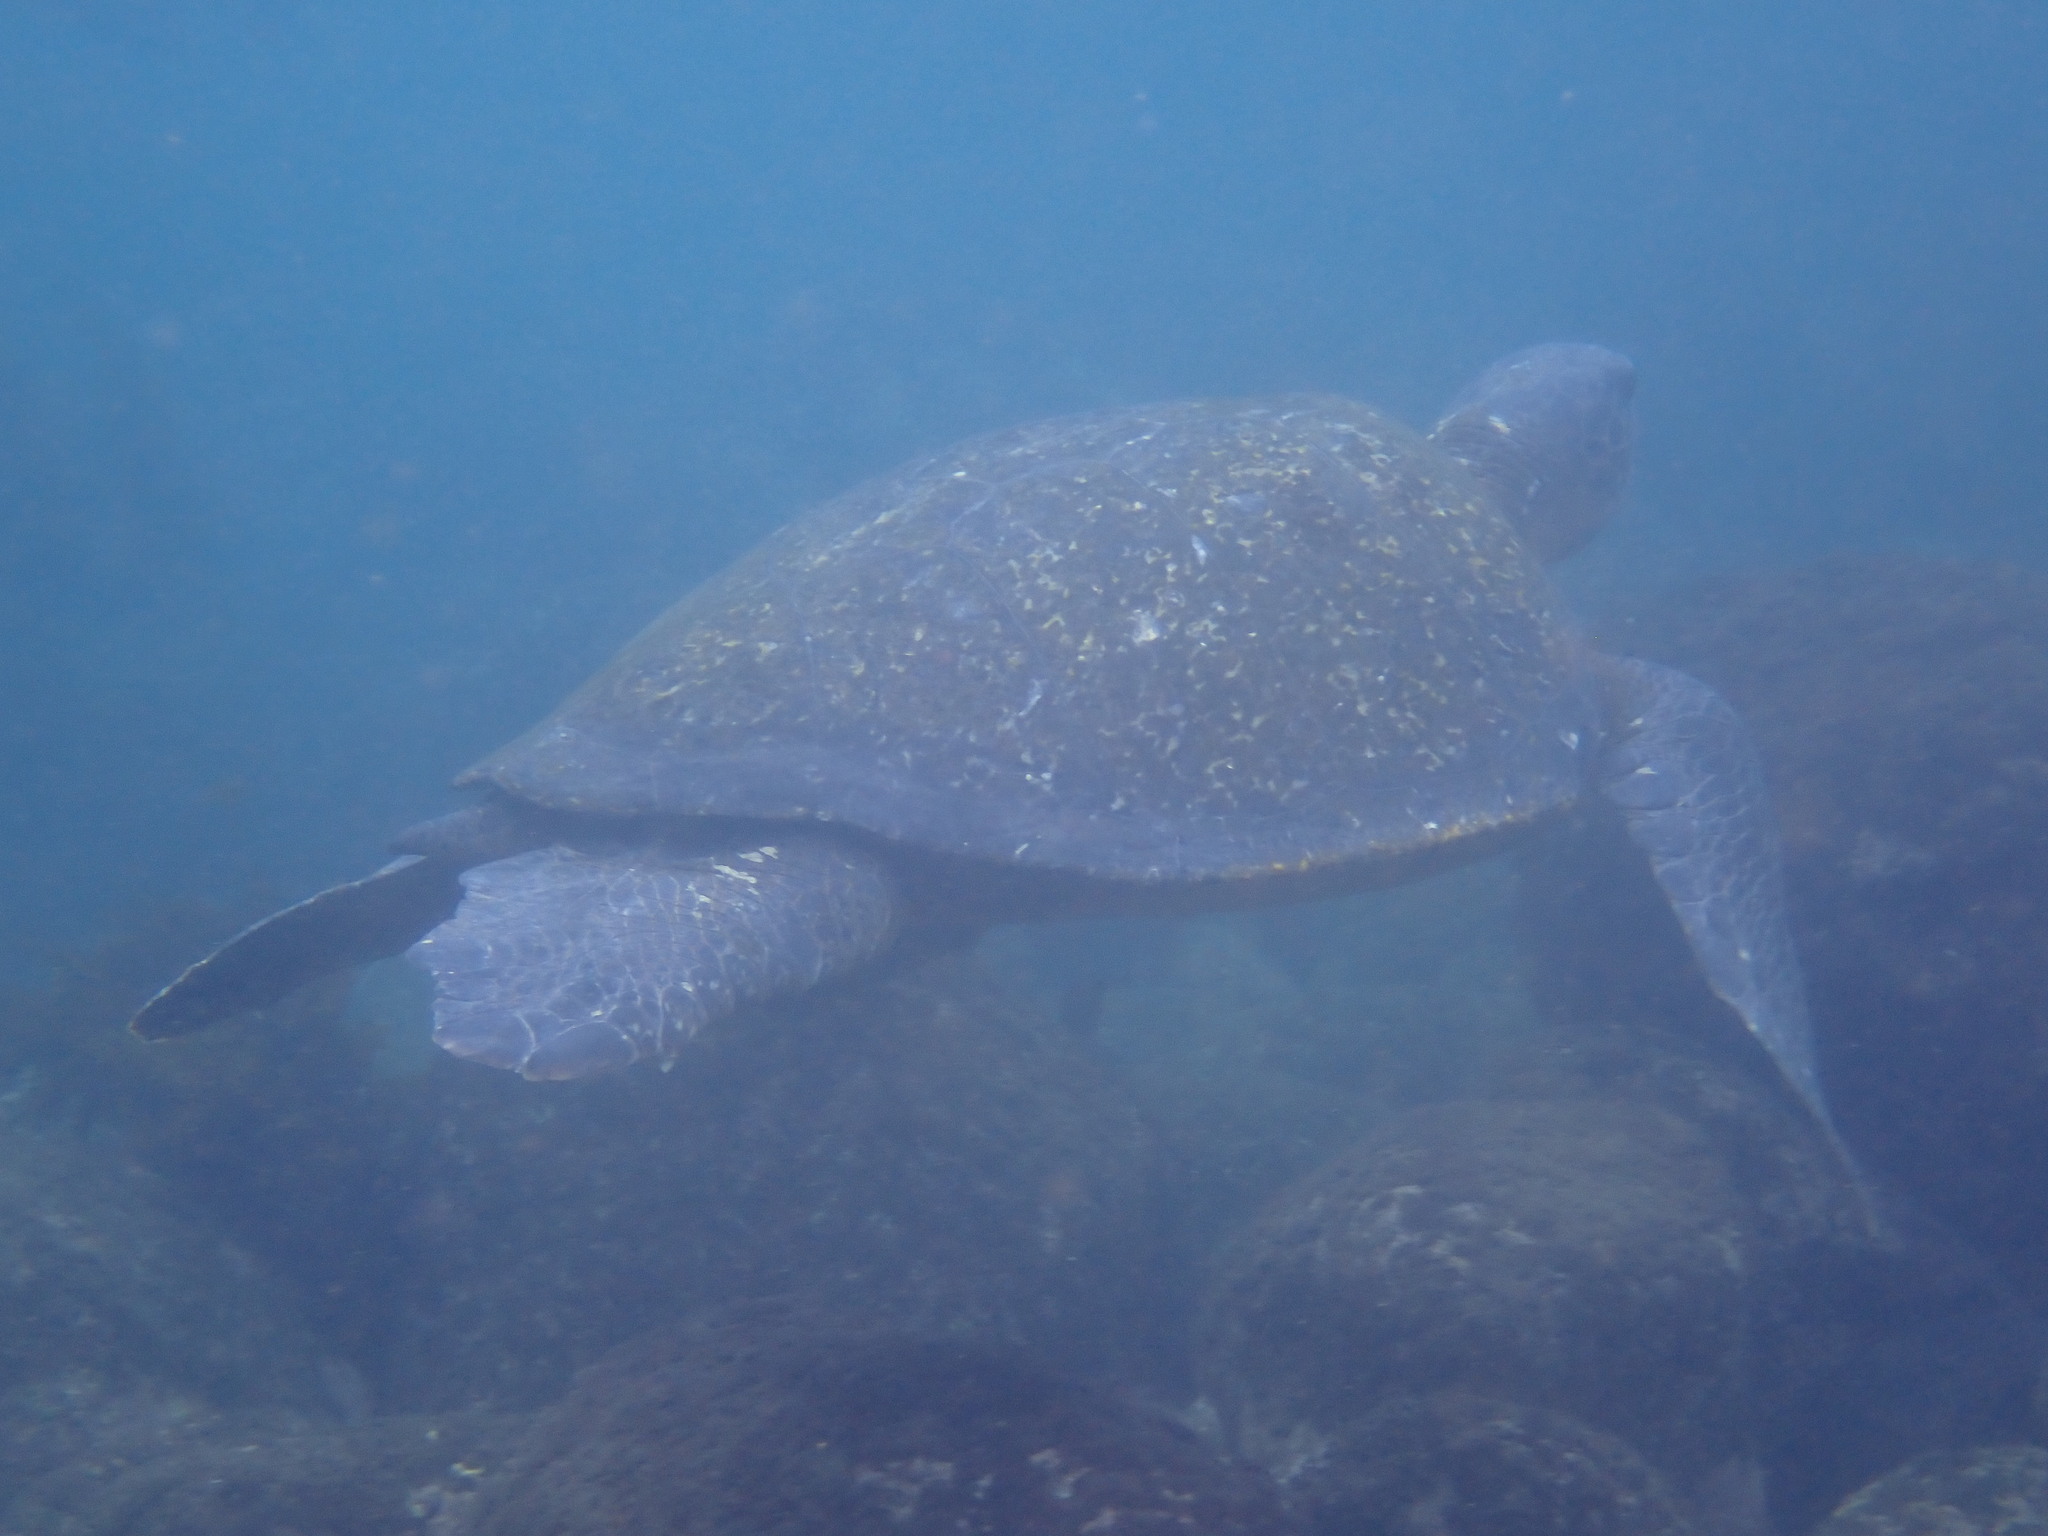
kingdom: Animalia
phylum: Chordata
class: Testudines
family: Cheloniidae
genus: Chelonia
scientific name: Chelonia mydas
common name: Green turtle
